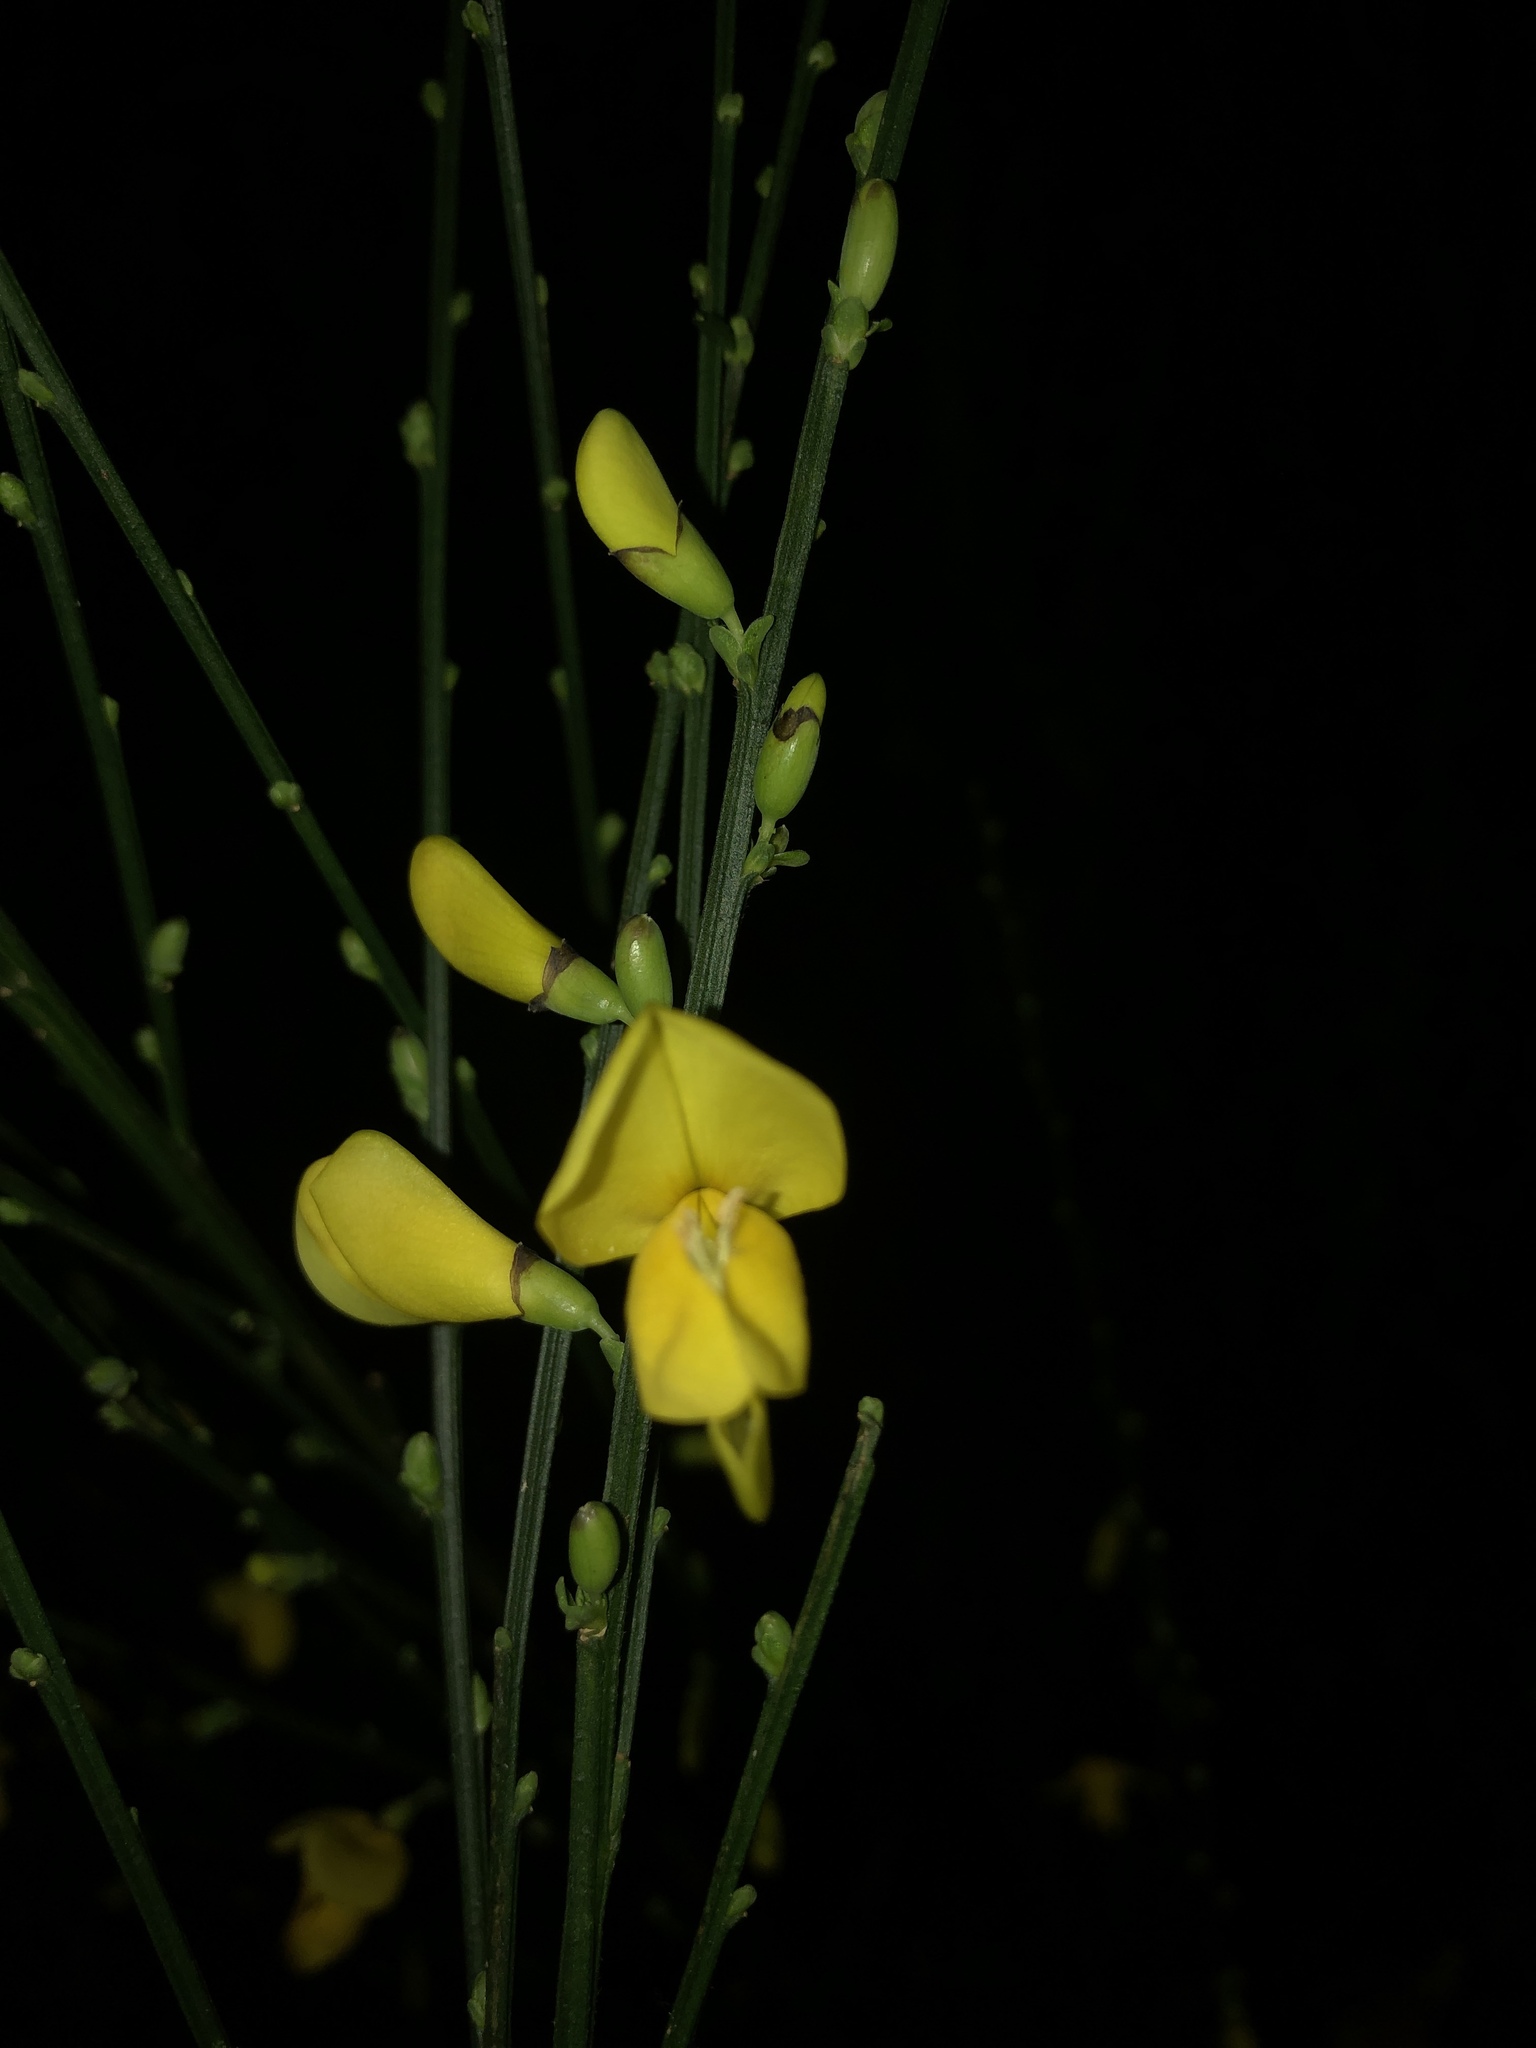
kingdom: Plantae
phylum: Tracheophyta
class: Magnoliopsida
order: Fabales
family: Fabaceae
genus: Cytisus
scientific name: Cytisus scoparius
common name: Scotch broom
